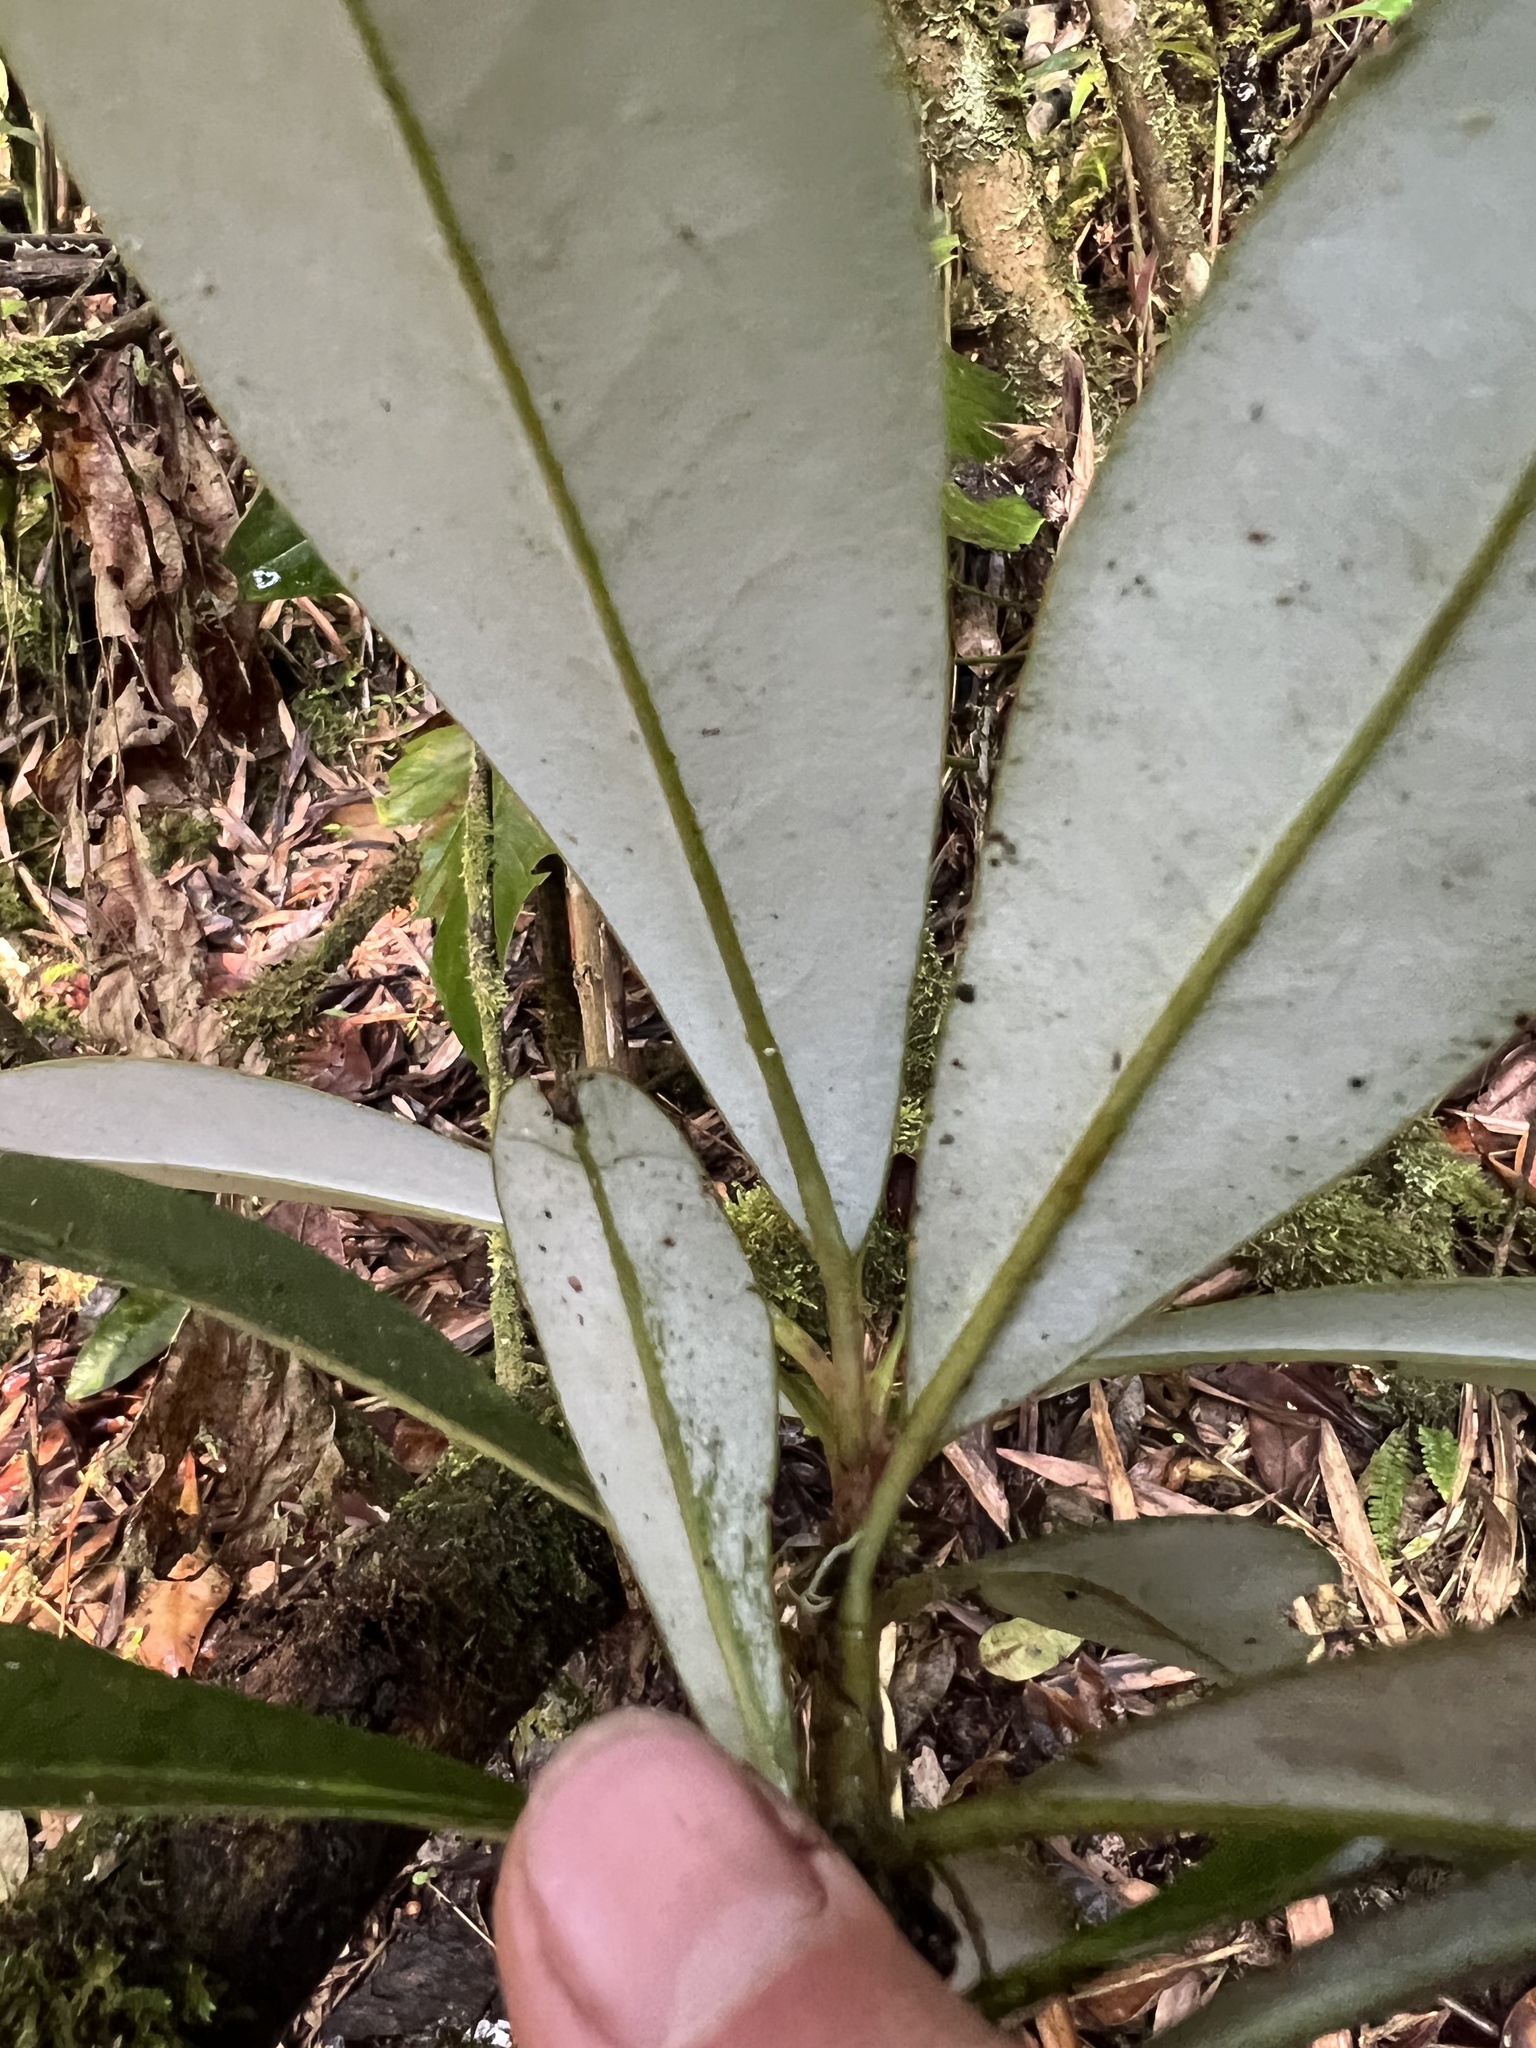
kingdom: Plantae
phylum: Tracheophyta
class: Magnoliopsida
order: Canellales
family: Winteraceae
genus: Drimys
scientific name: Drimys granadensis
